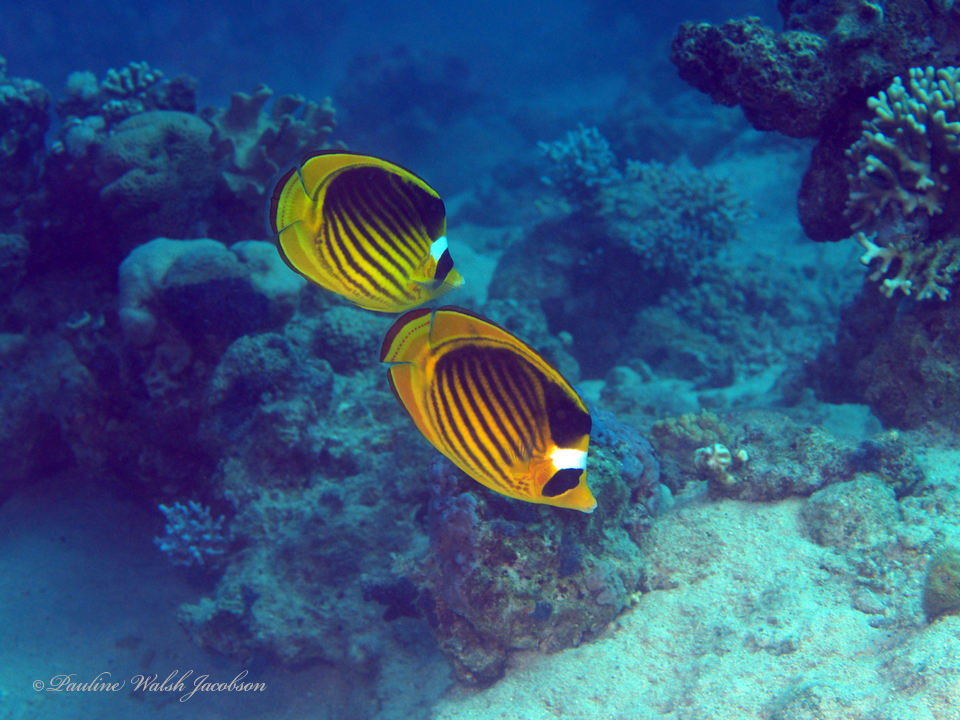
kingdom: Animalia
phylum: Chordata
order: Perciformes
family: Chaetodontidae
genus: Chaetodon
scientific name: Chaetodon fasciatus
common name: Diagonal butterflyfish
